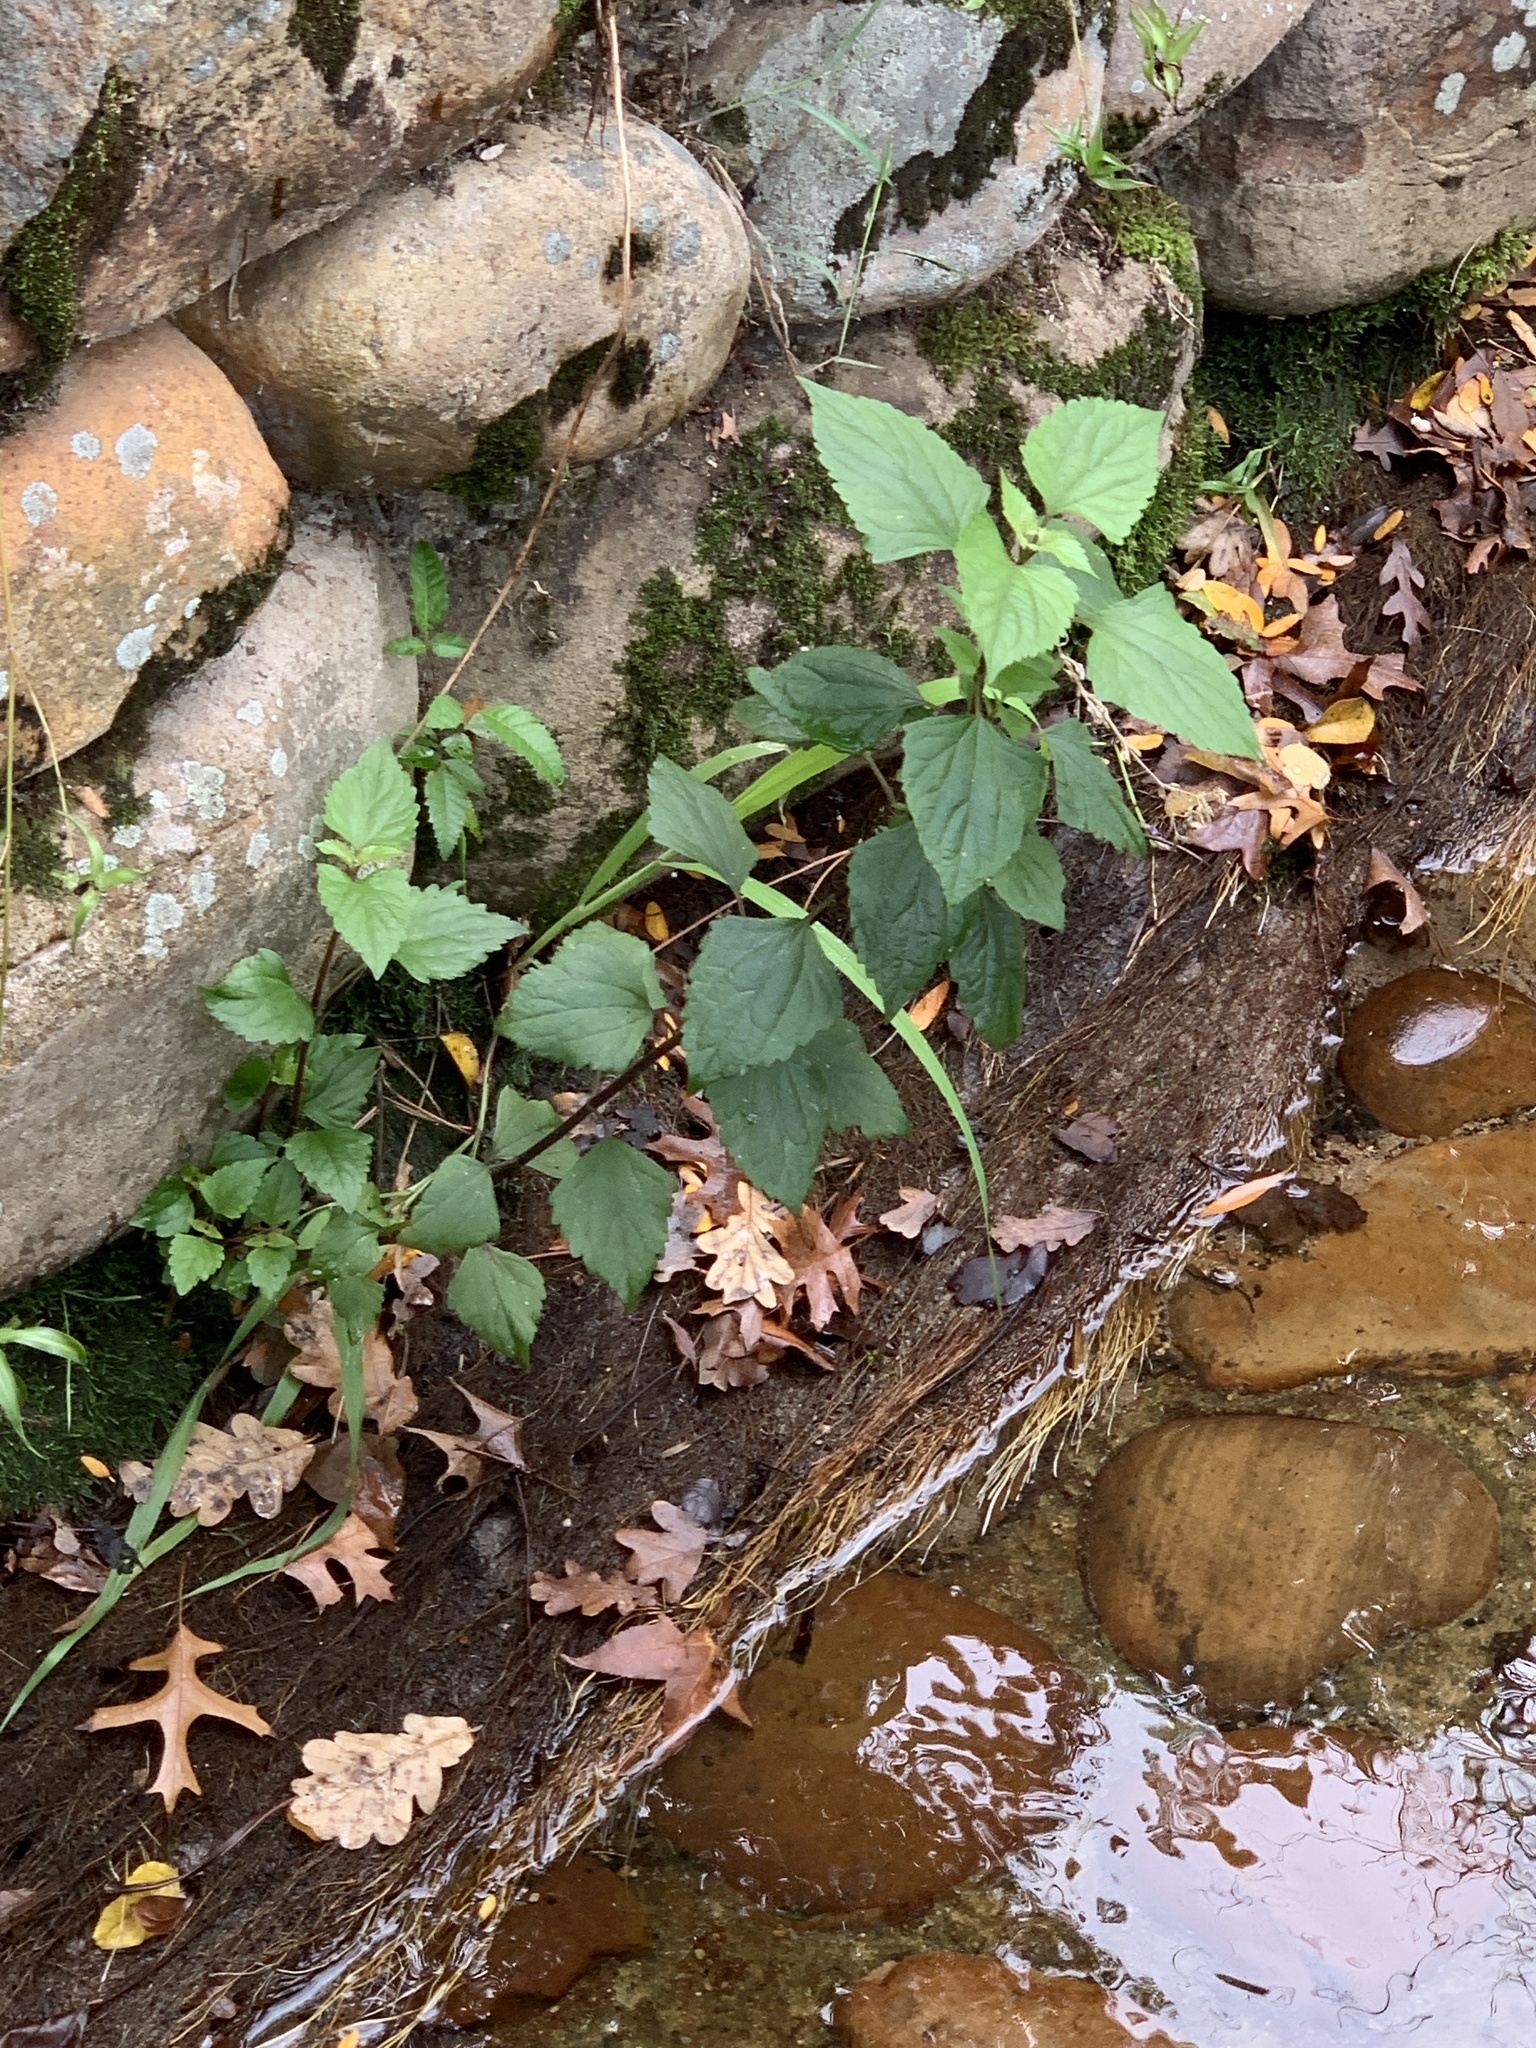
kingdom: Plantae
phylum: Tracheophyta
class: Magnoliopsida
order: Asterales
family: Asteraceae
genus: Ageratina
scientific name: Ageratina adenophora
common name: Sticky snakeroot
